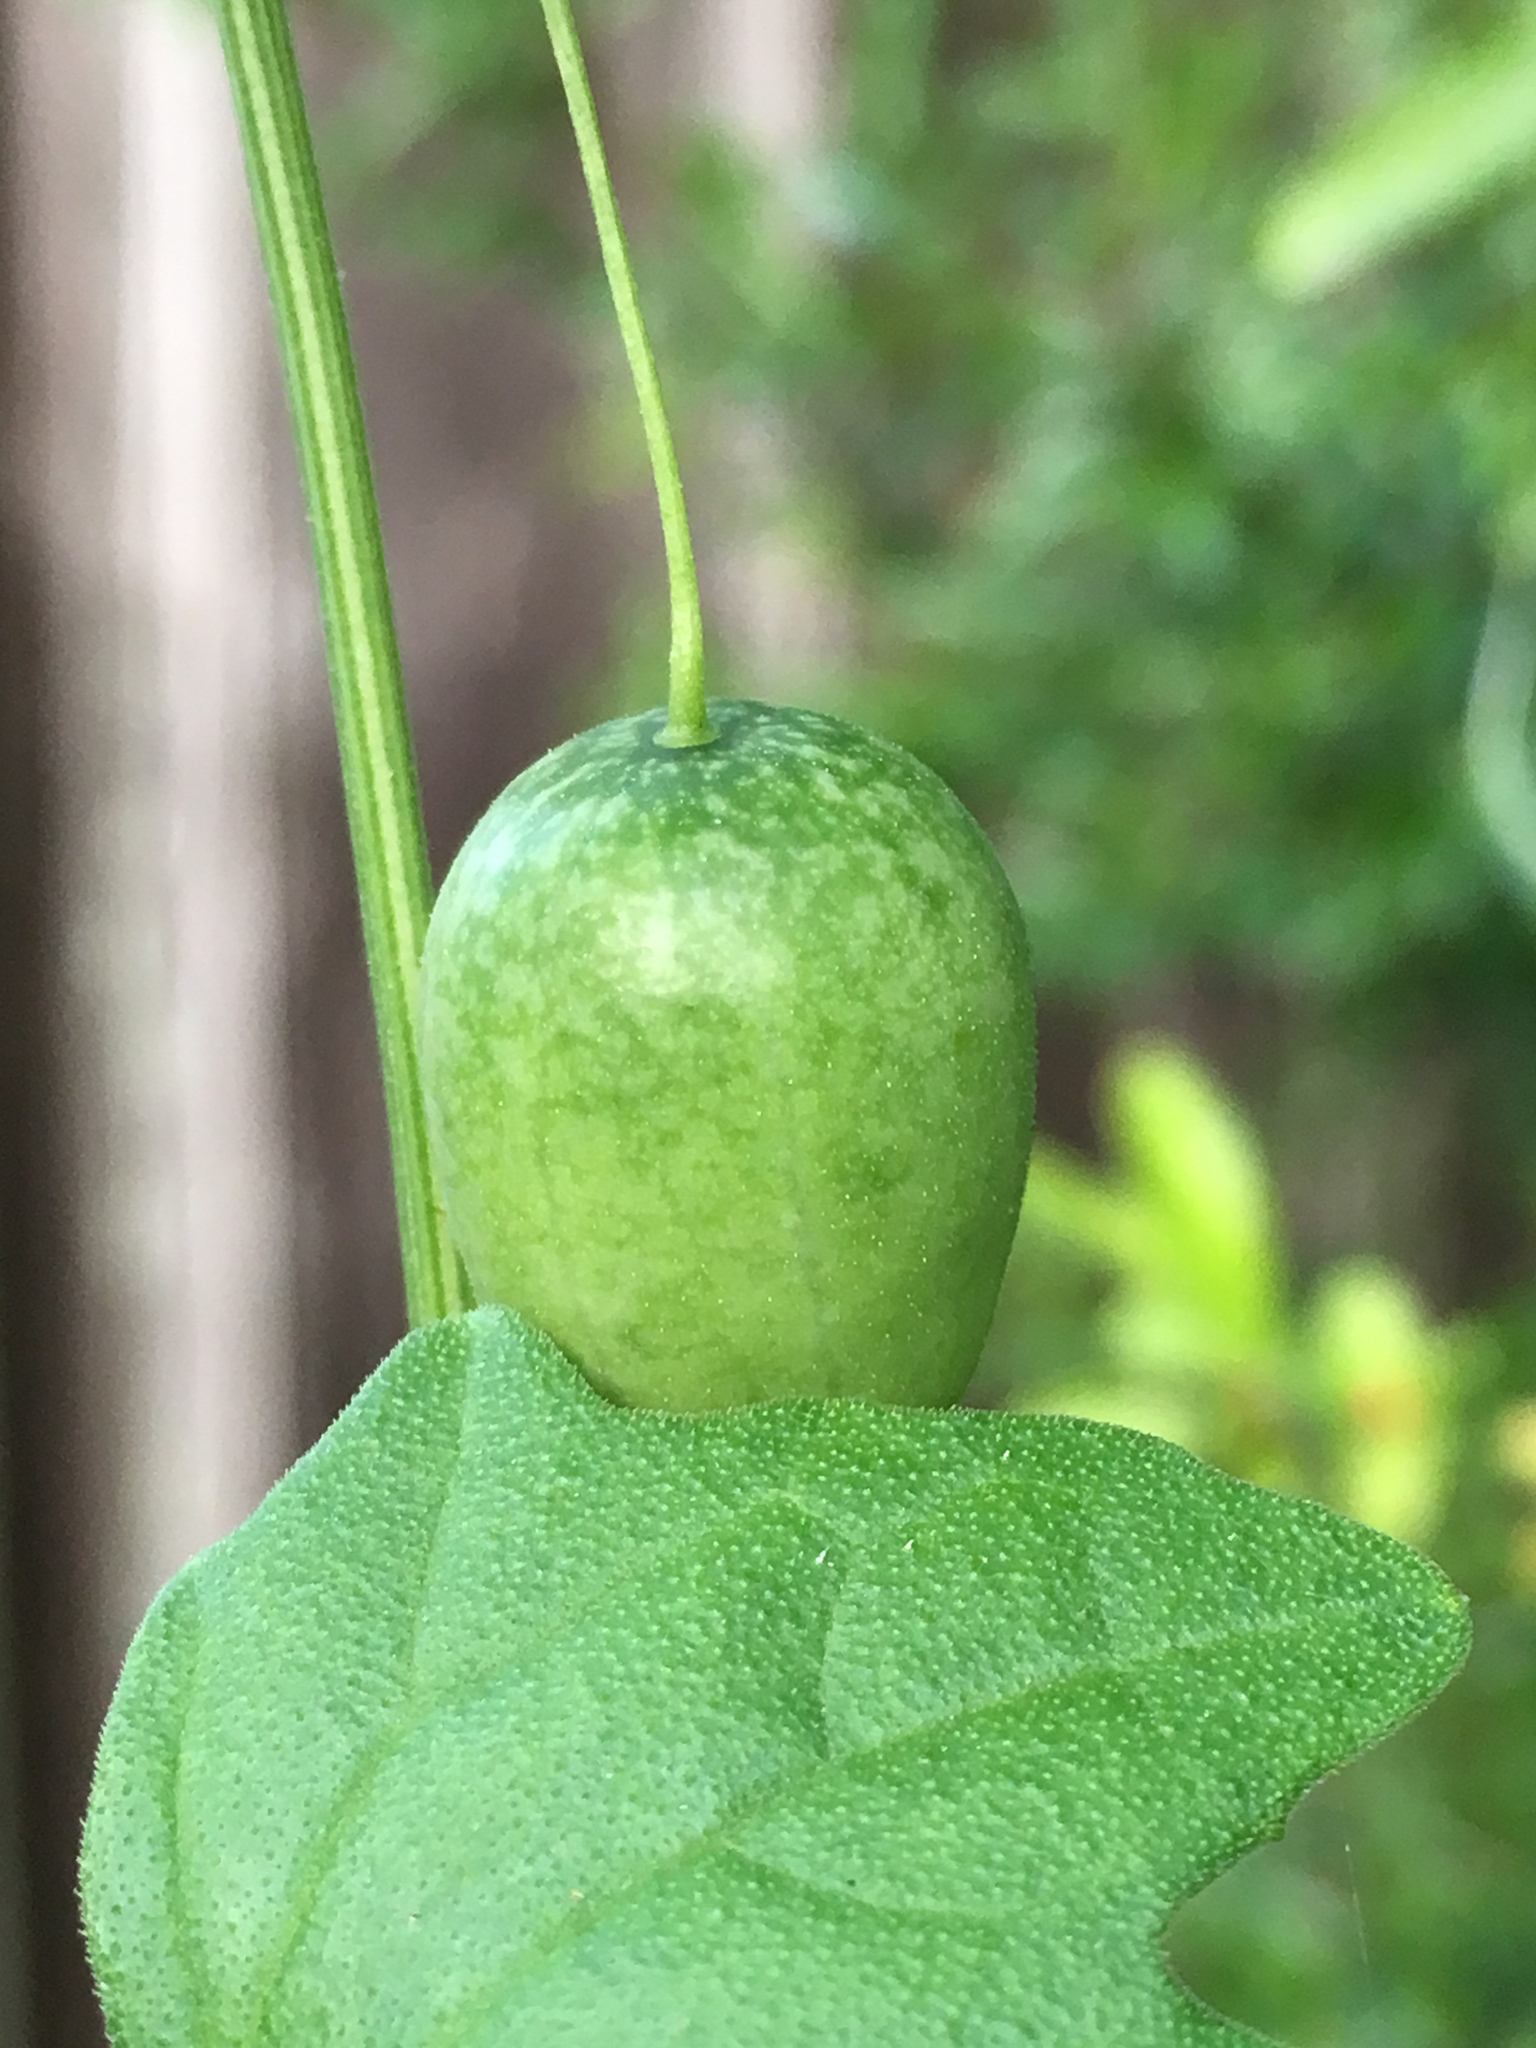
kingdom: Plantae
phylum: Tracheophyta
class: Magnoliopsida
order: Cucurbitales
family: Cucurbitaceae
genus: Melothria
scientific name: Melothria pendula
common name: Creeping-cucumber
